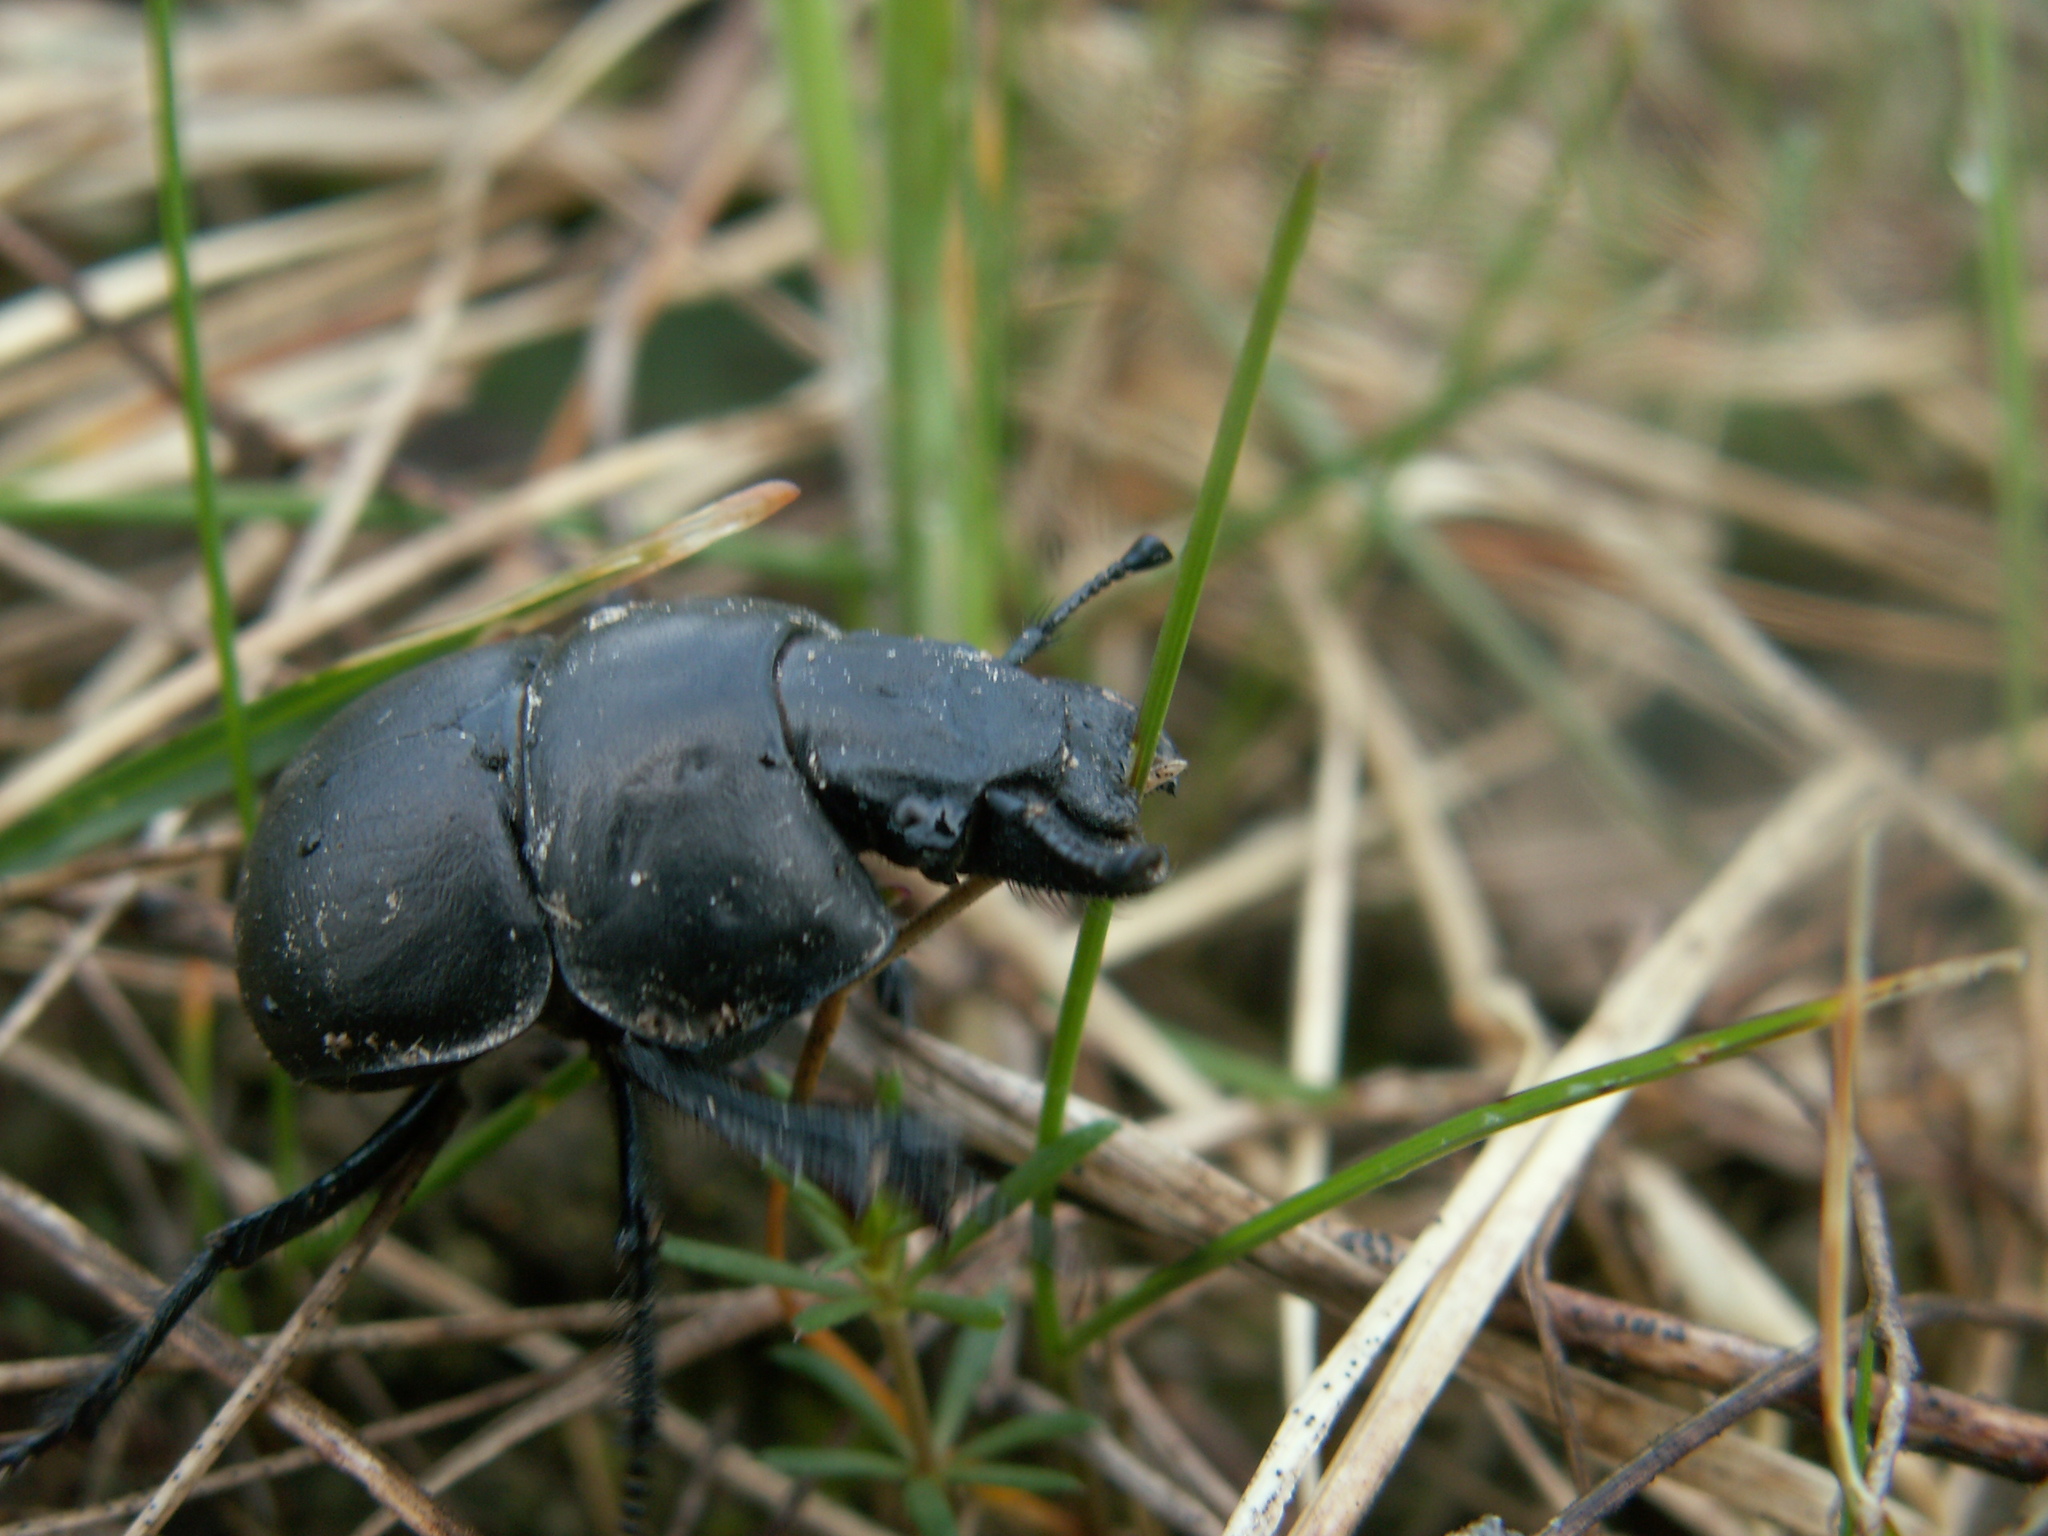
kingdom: Animalia
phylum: Arthropoda
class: Insecta
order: Coleoptera
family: Geotrupidae
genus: Lethrus
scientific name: Lethrus apterus
